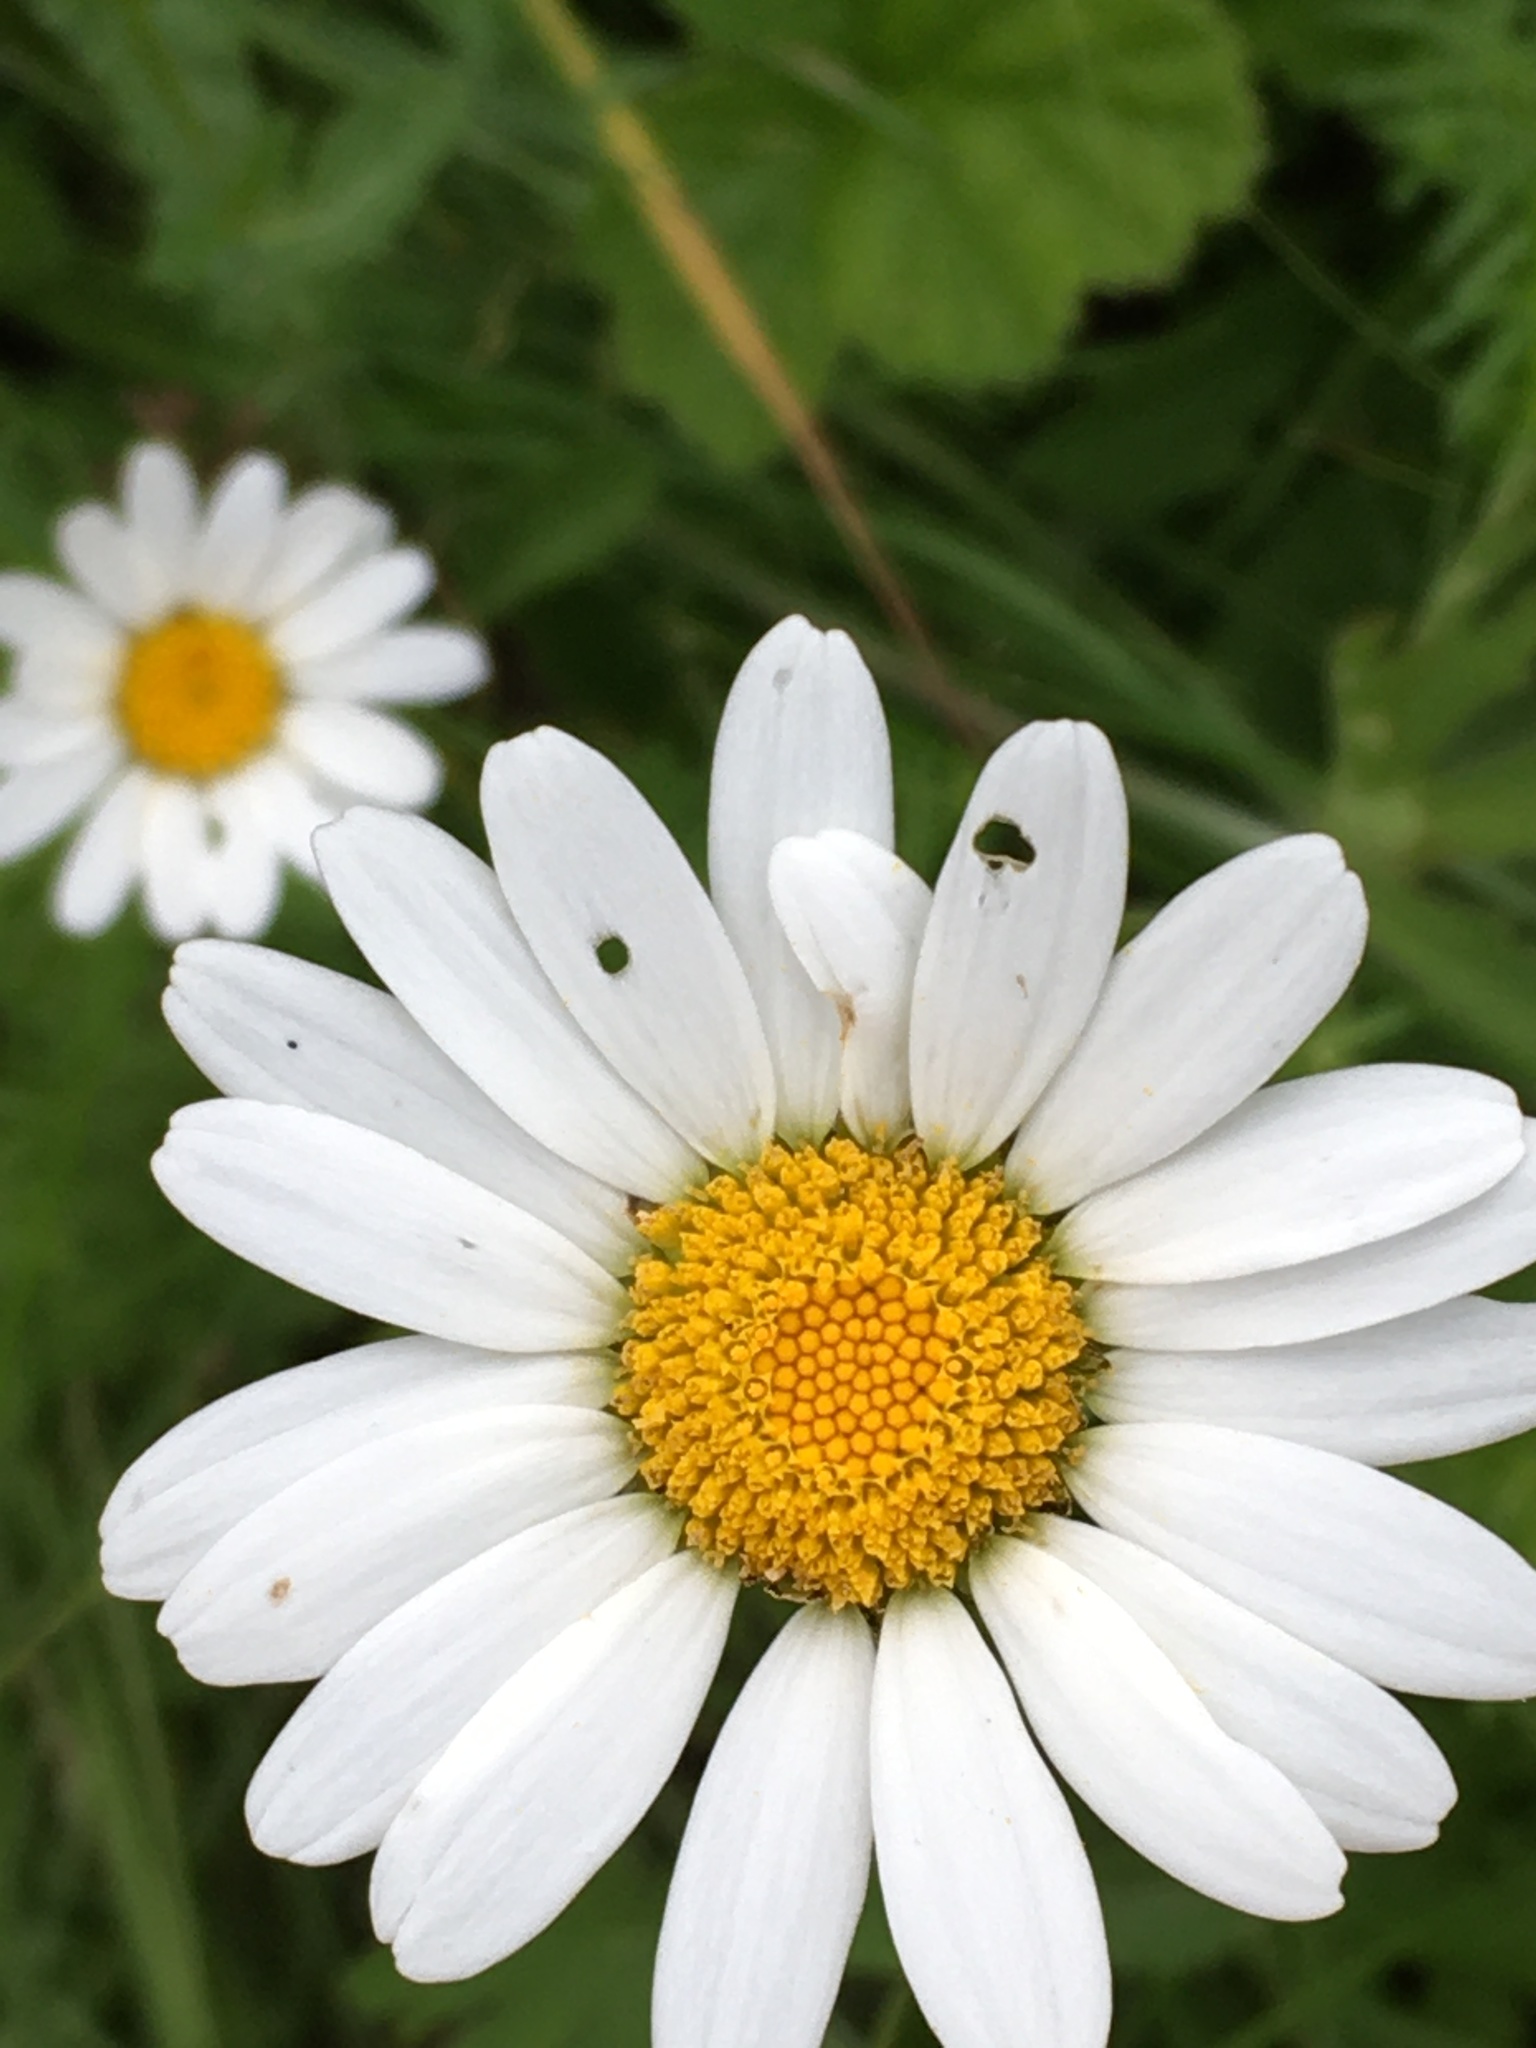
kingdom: Plantae
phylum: Tracheophyta
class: Magnoliopsida
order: Asterales
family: Asteraceae
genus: Leucanthemum
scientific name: Leucanthemum vulgare
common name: Oxeye daisy
